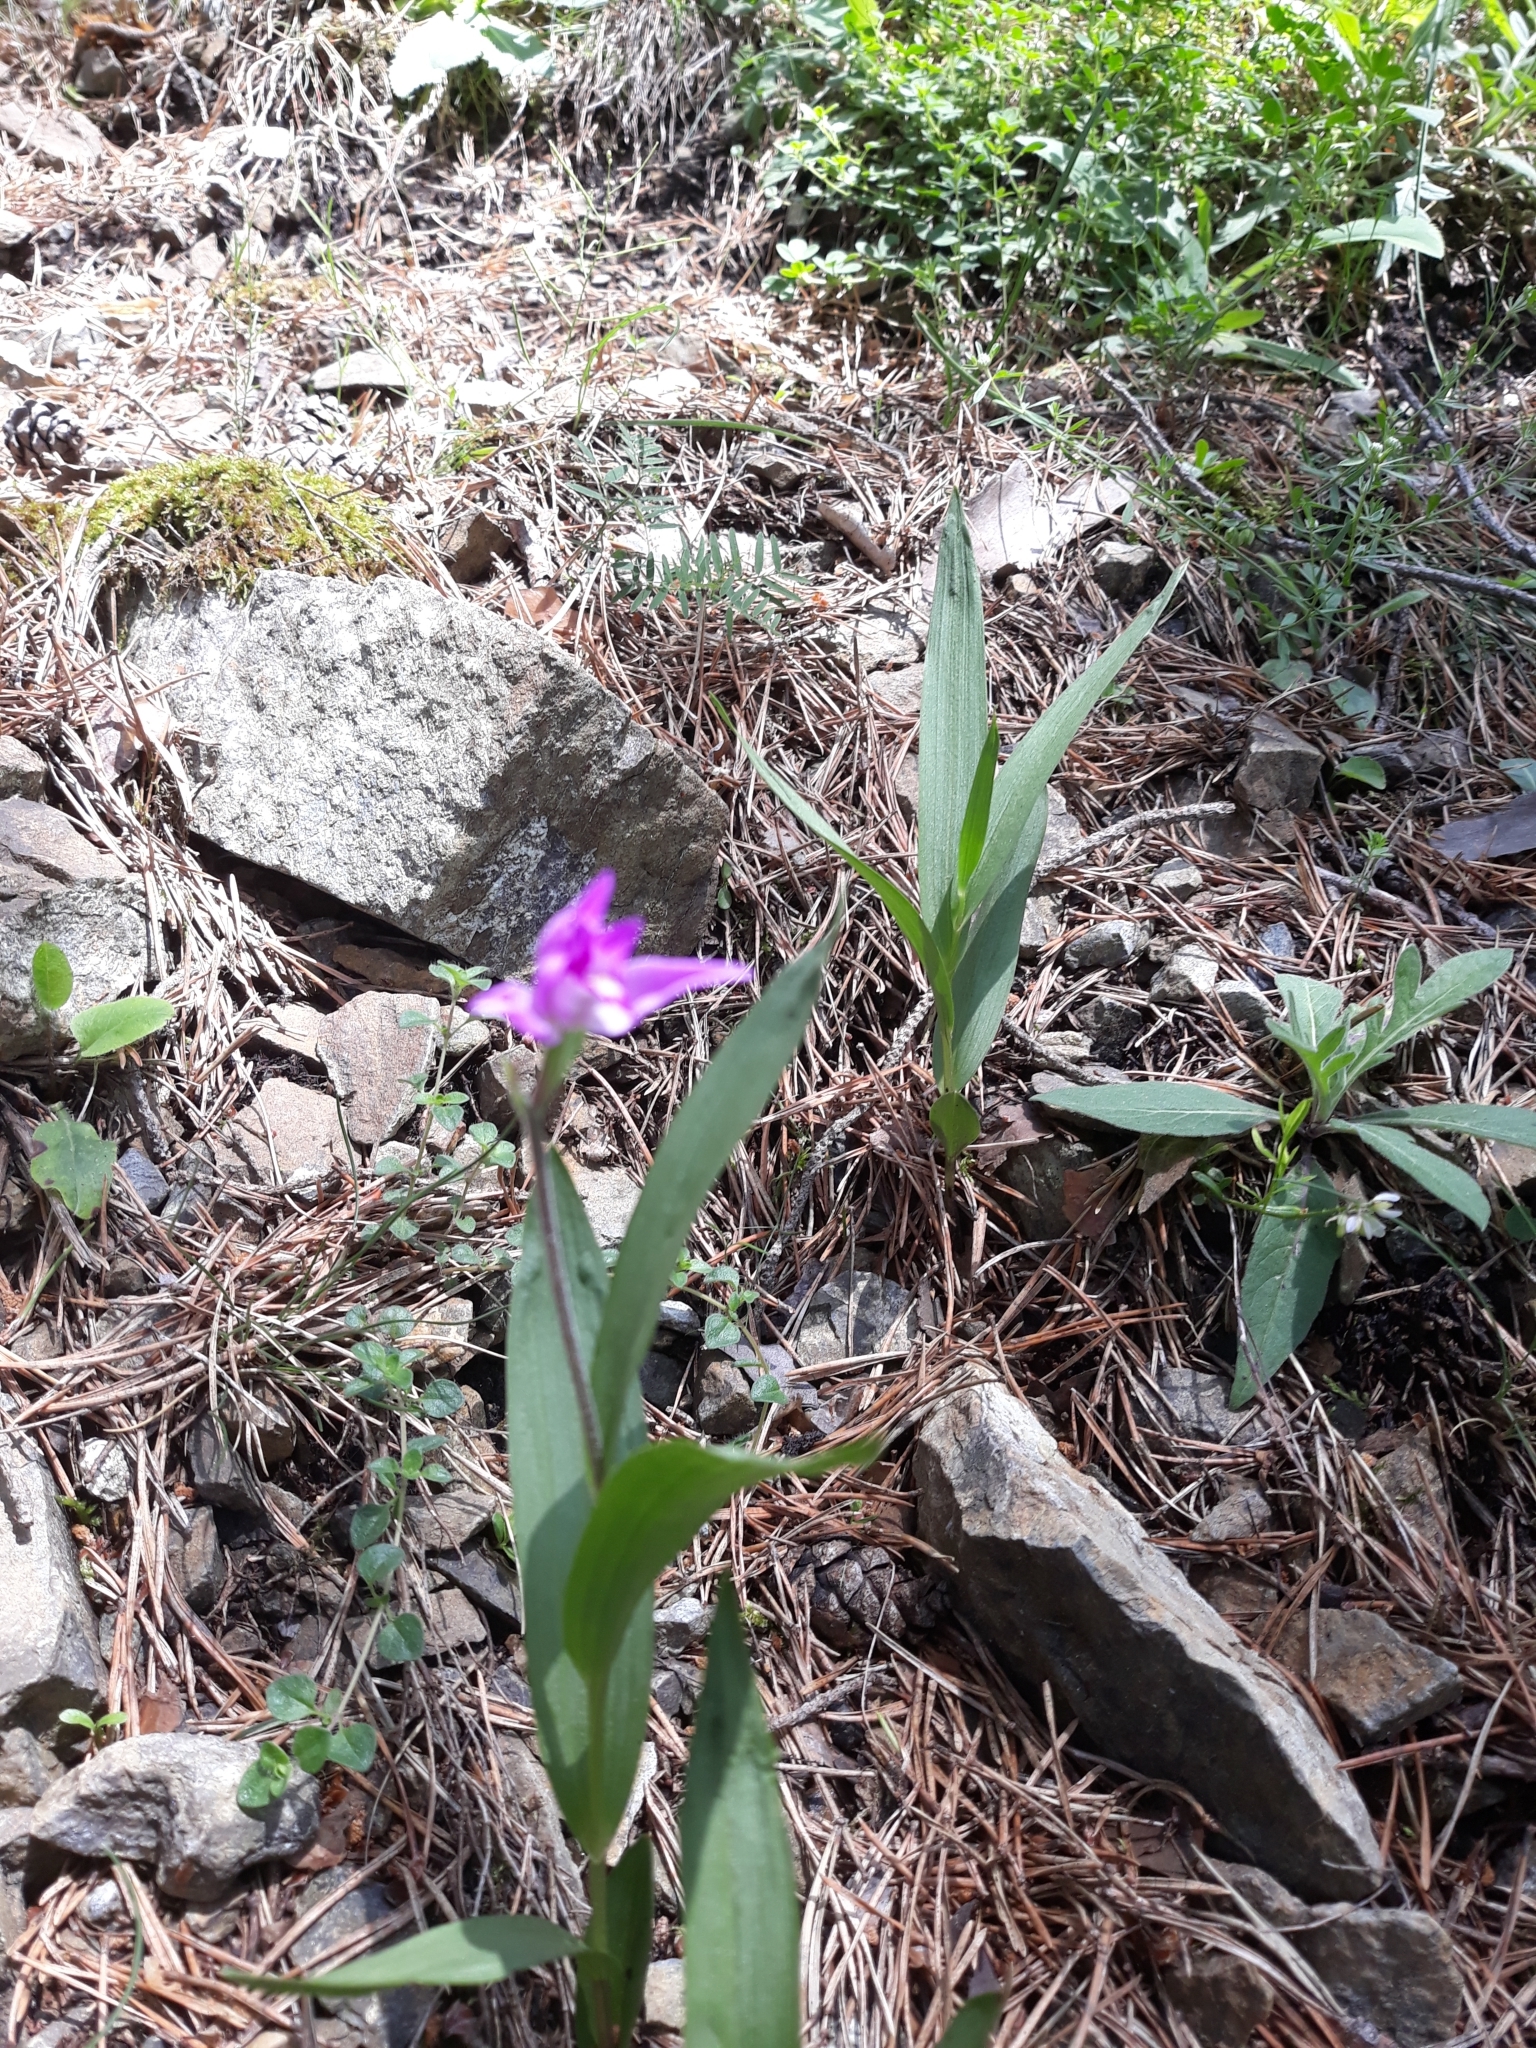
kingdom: Plantae
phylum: Tracheophyta
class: Liliopsida
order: Asparagales
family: Orchidaceae
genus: Cephalanthera
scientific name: Cephalanthera rubra
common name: Red helleborine
